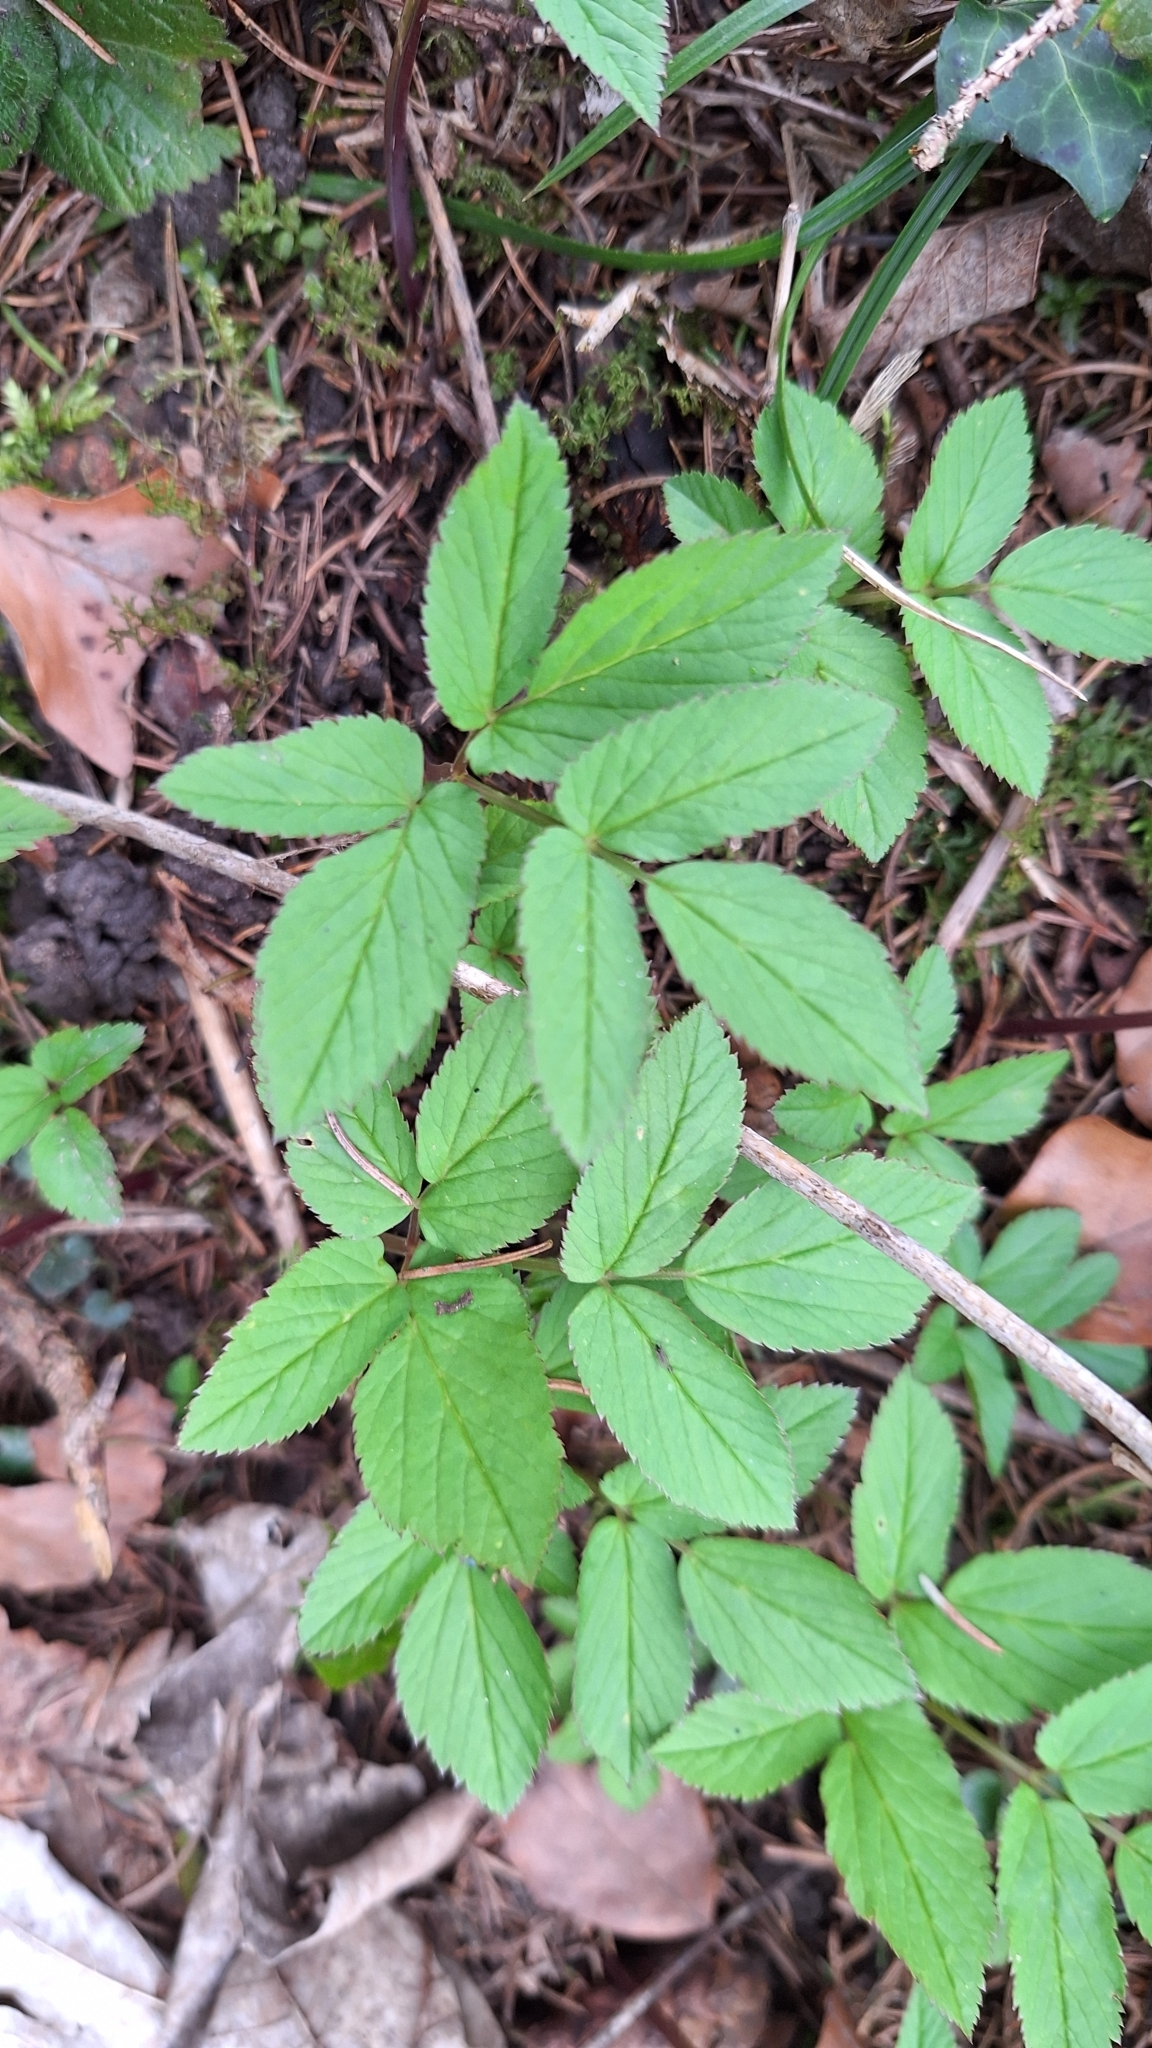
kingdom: Plantae
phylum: Tracheophyta
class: Magnoliopsida
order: Apiales
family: Apiaceae
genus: Aegopodium
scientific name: Aegopodium podagraria
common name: Ground-elder
